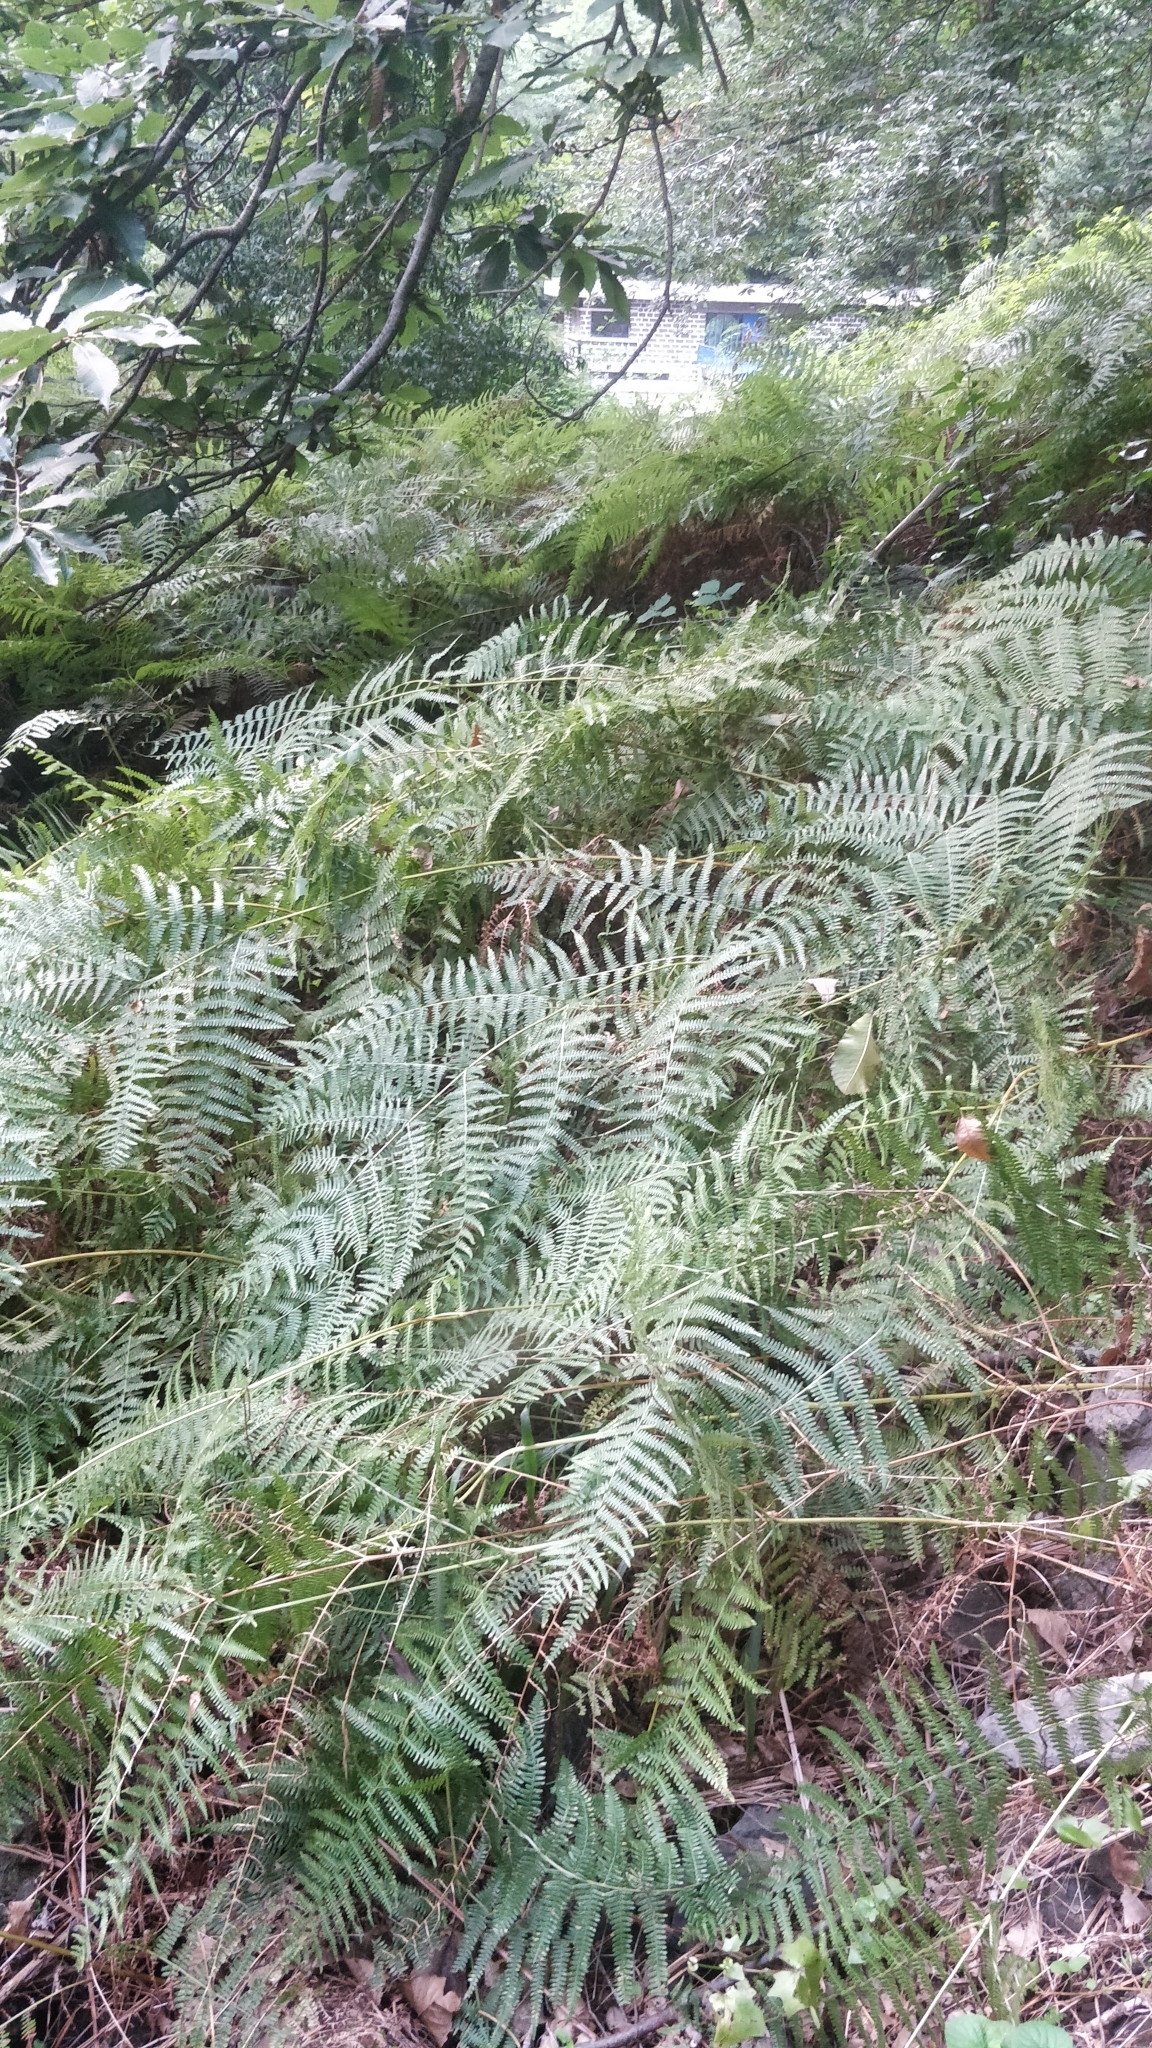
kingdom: Plantae
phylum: Tracheophyta
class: Polypodiopsida
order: Polypodiales
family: Dennstaedtiaceae
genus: Pteridium
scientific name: Pteridium aquilinum
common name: Bracken
